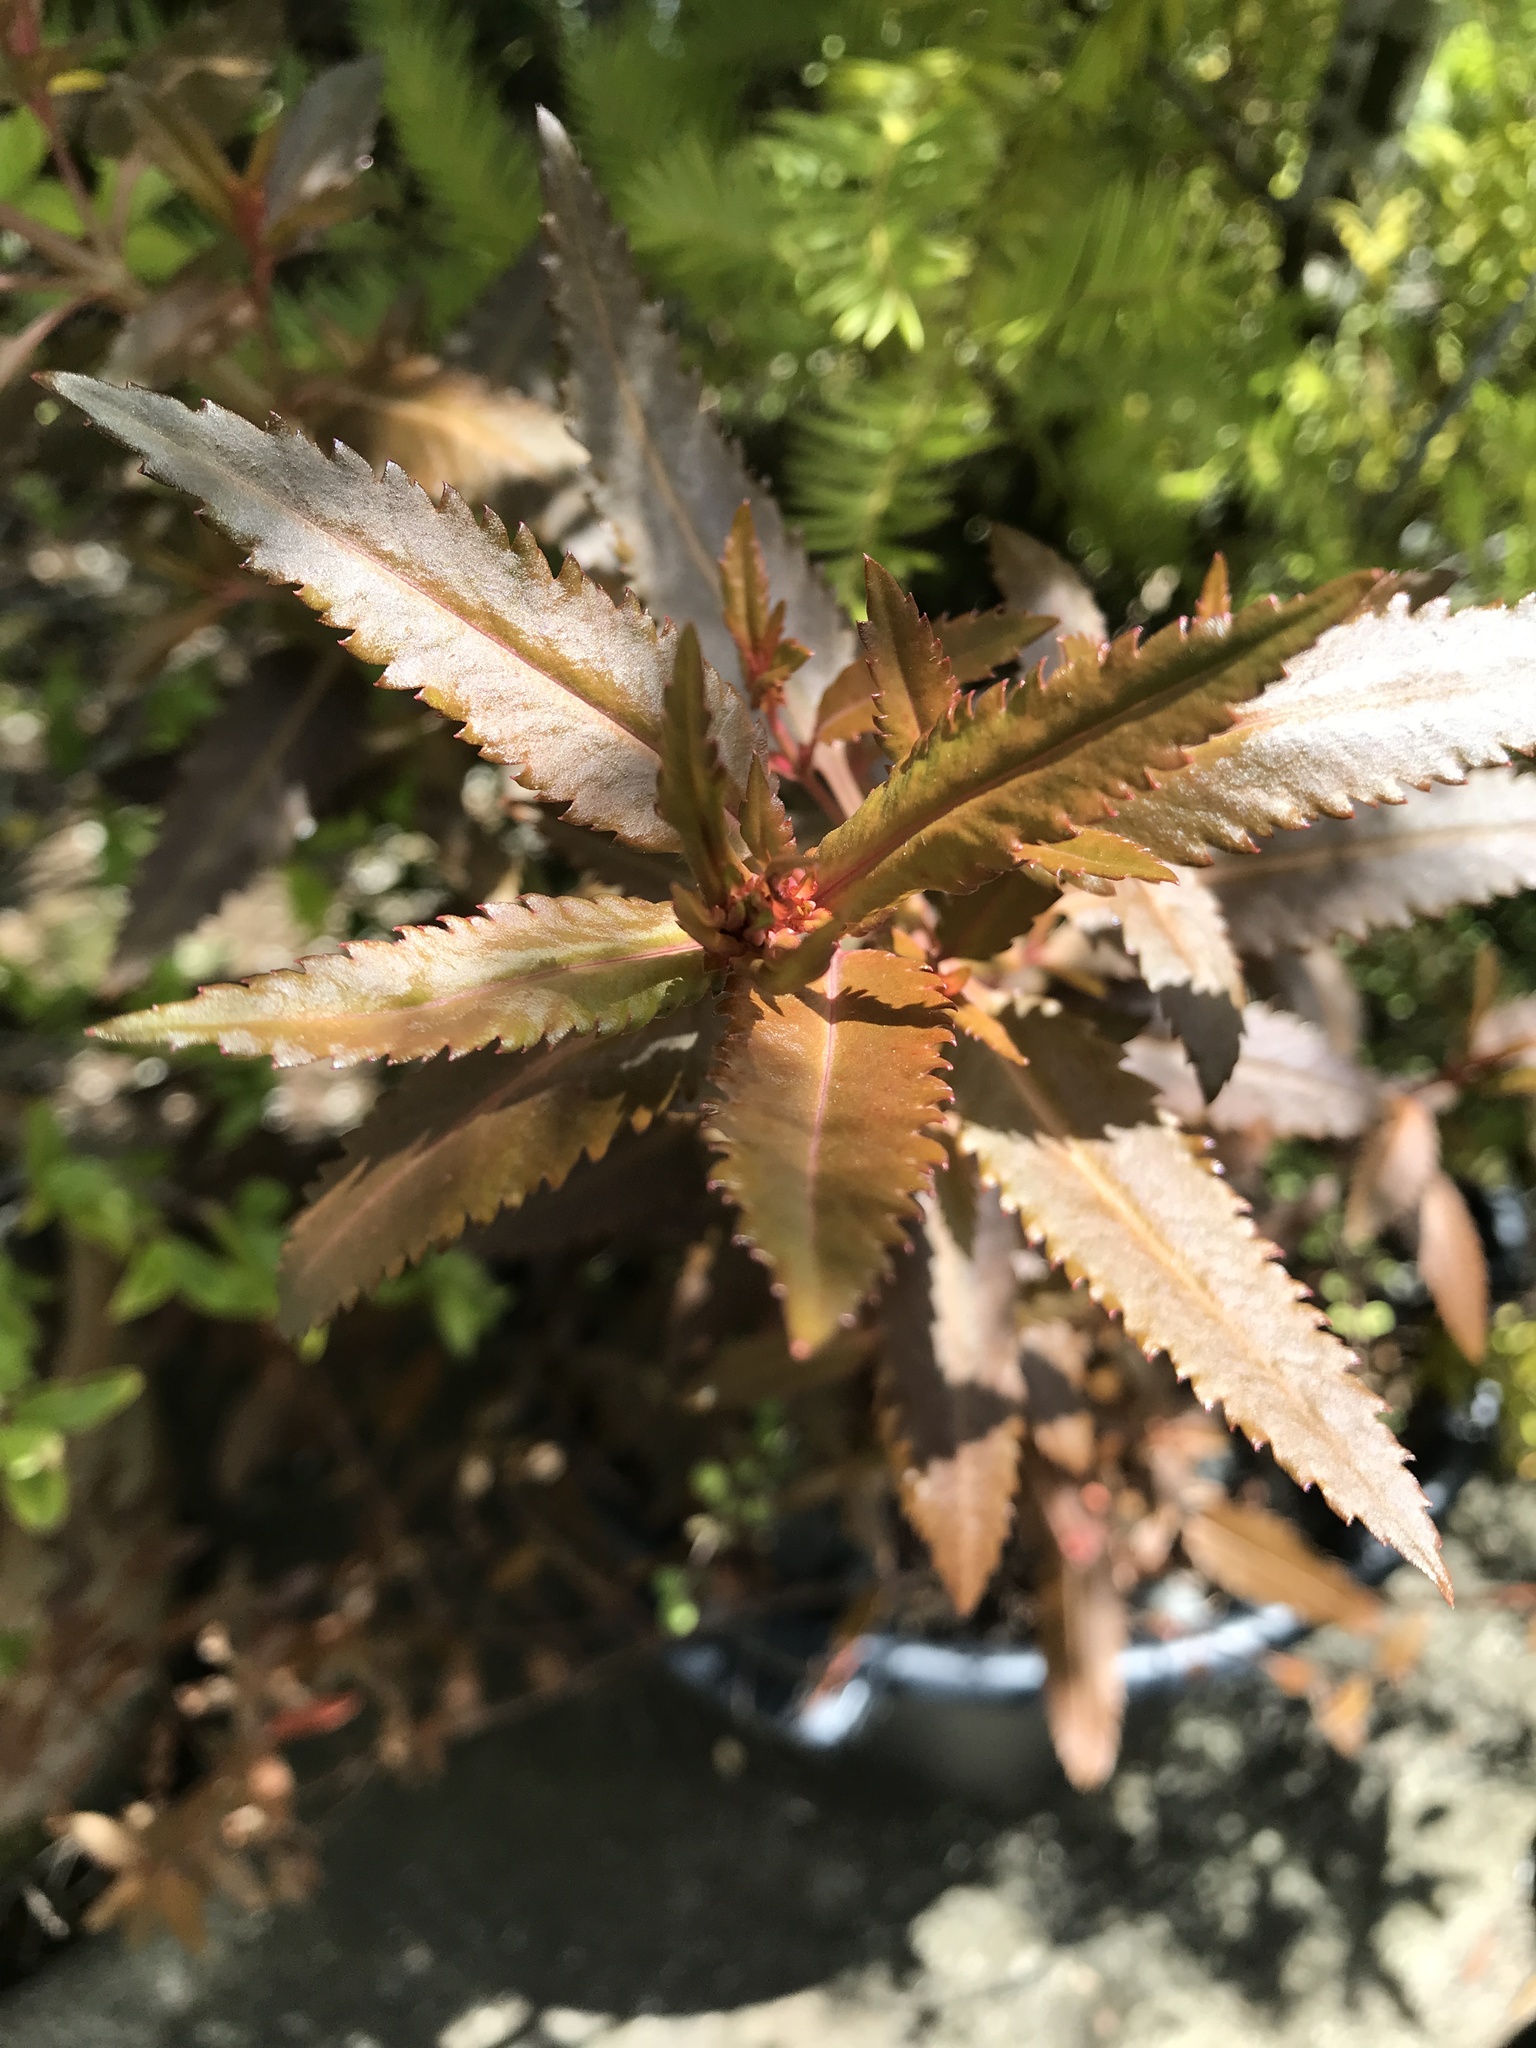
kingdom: Plantae
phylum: Tracheophyta
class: Magnoliopsida
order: Saxifragales
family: Haloragaceae
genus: Haloragis
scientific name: Haloragis erecta
